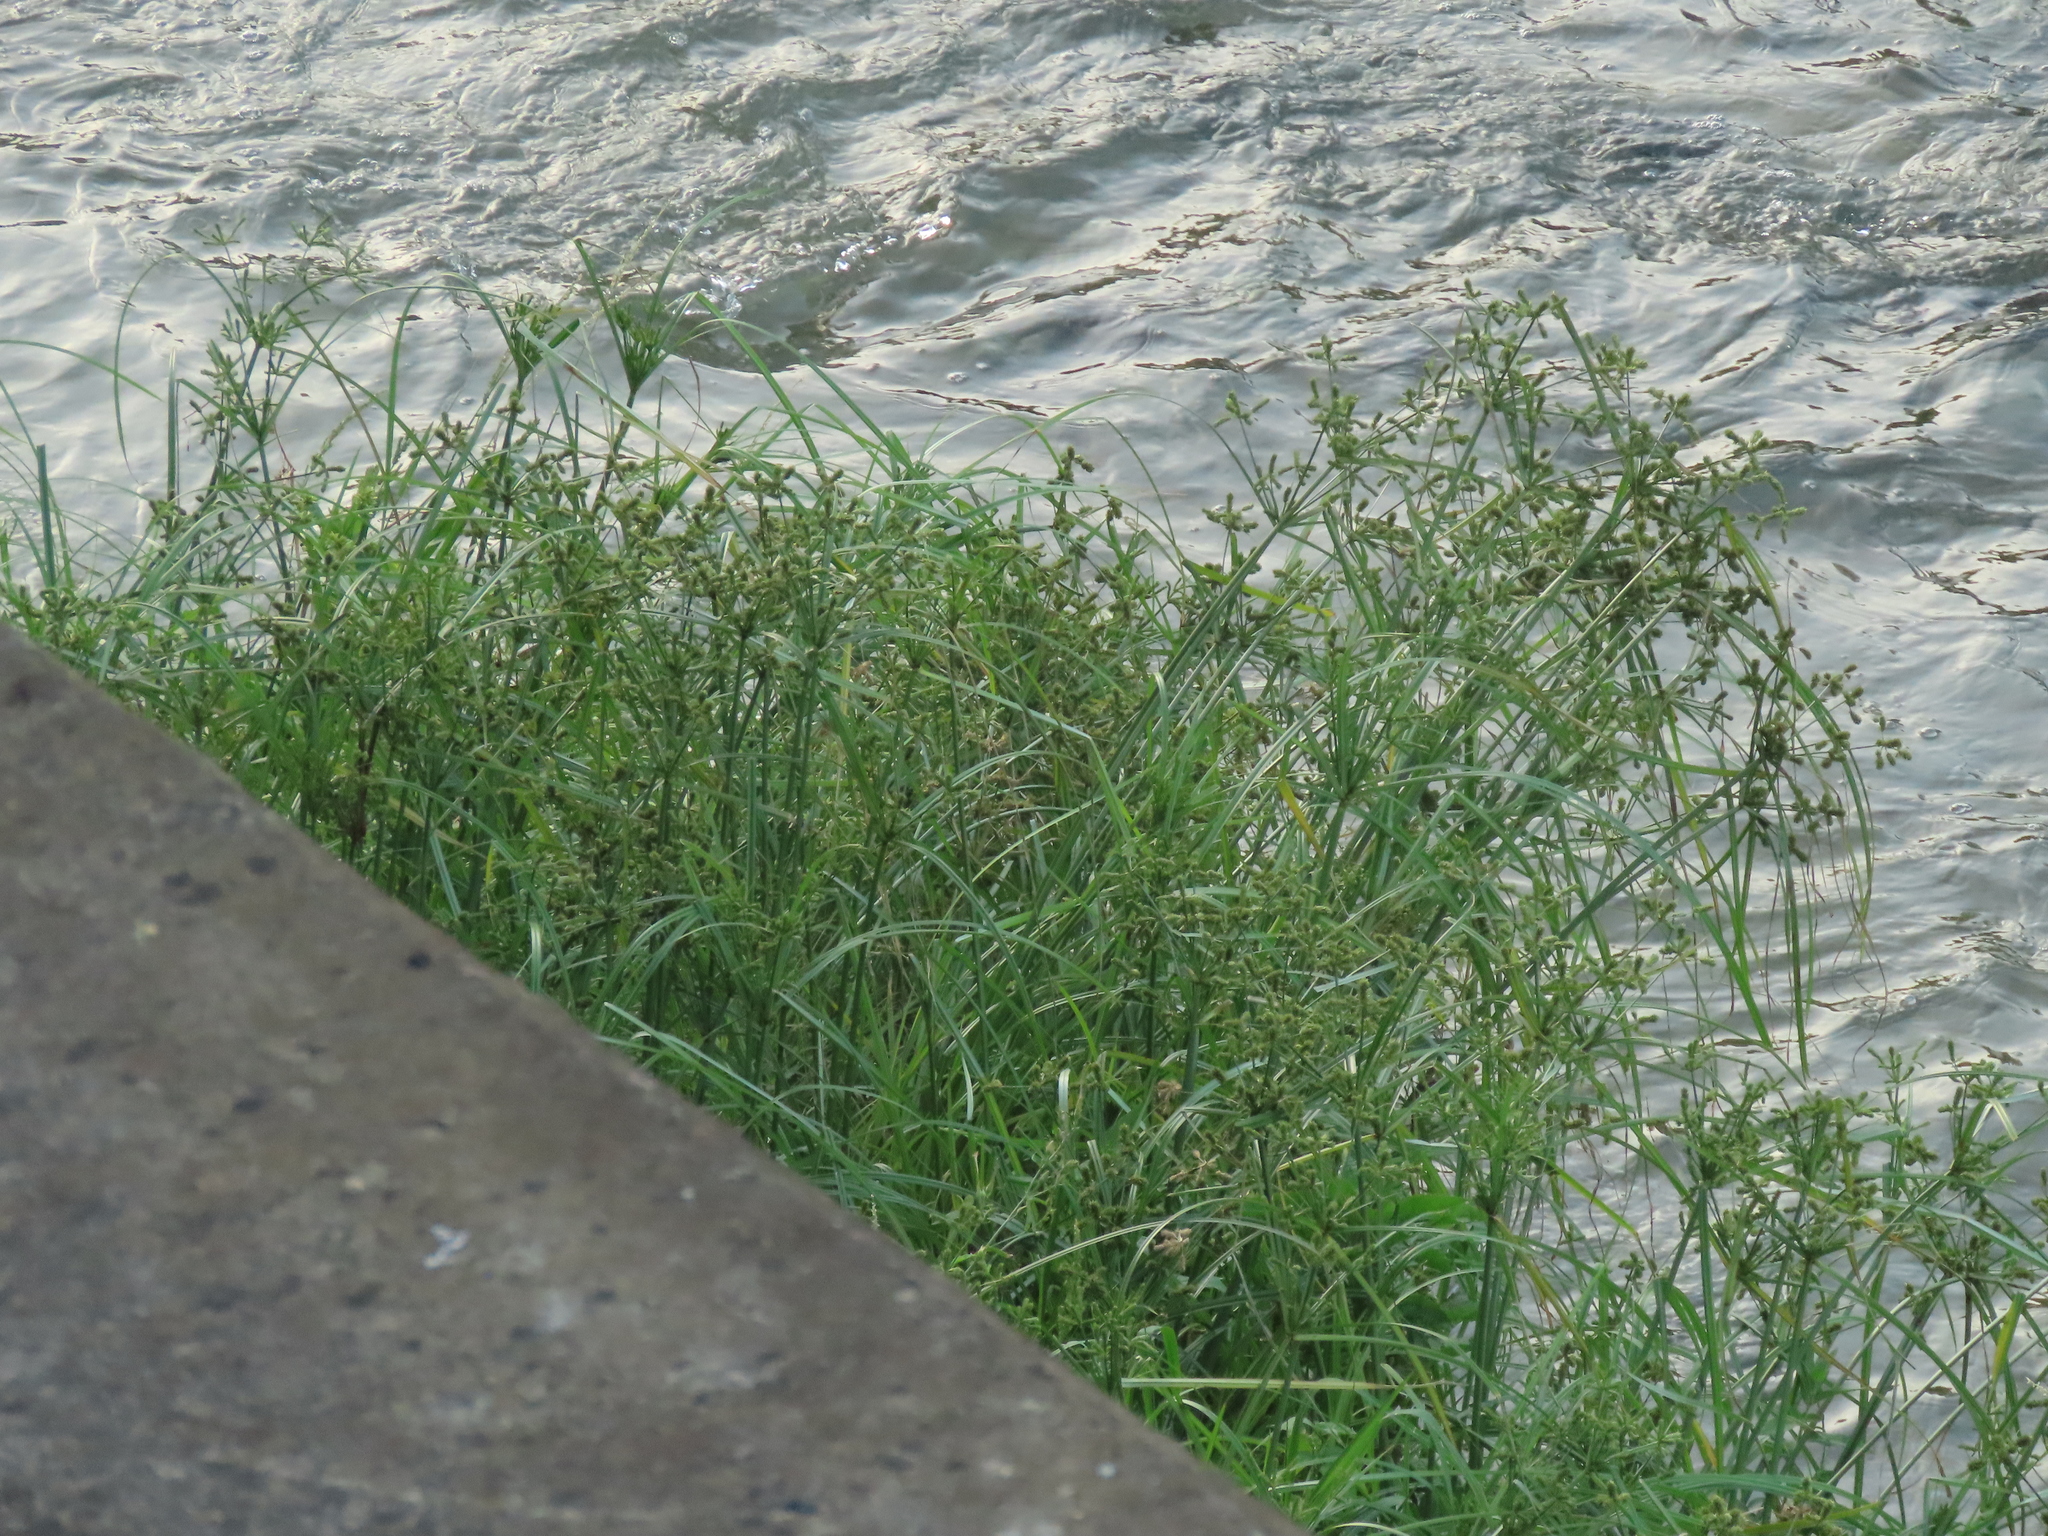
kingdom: Plantae
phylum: Tracheophyta
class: Liliopsida
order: Poales
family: Cyperaceae
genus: Cyperus
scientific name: Cyperus imbricatus
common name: Shingle flatsedge
